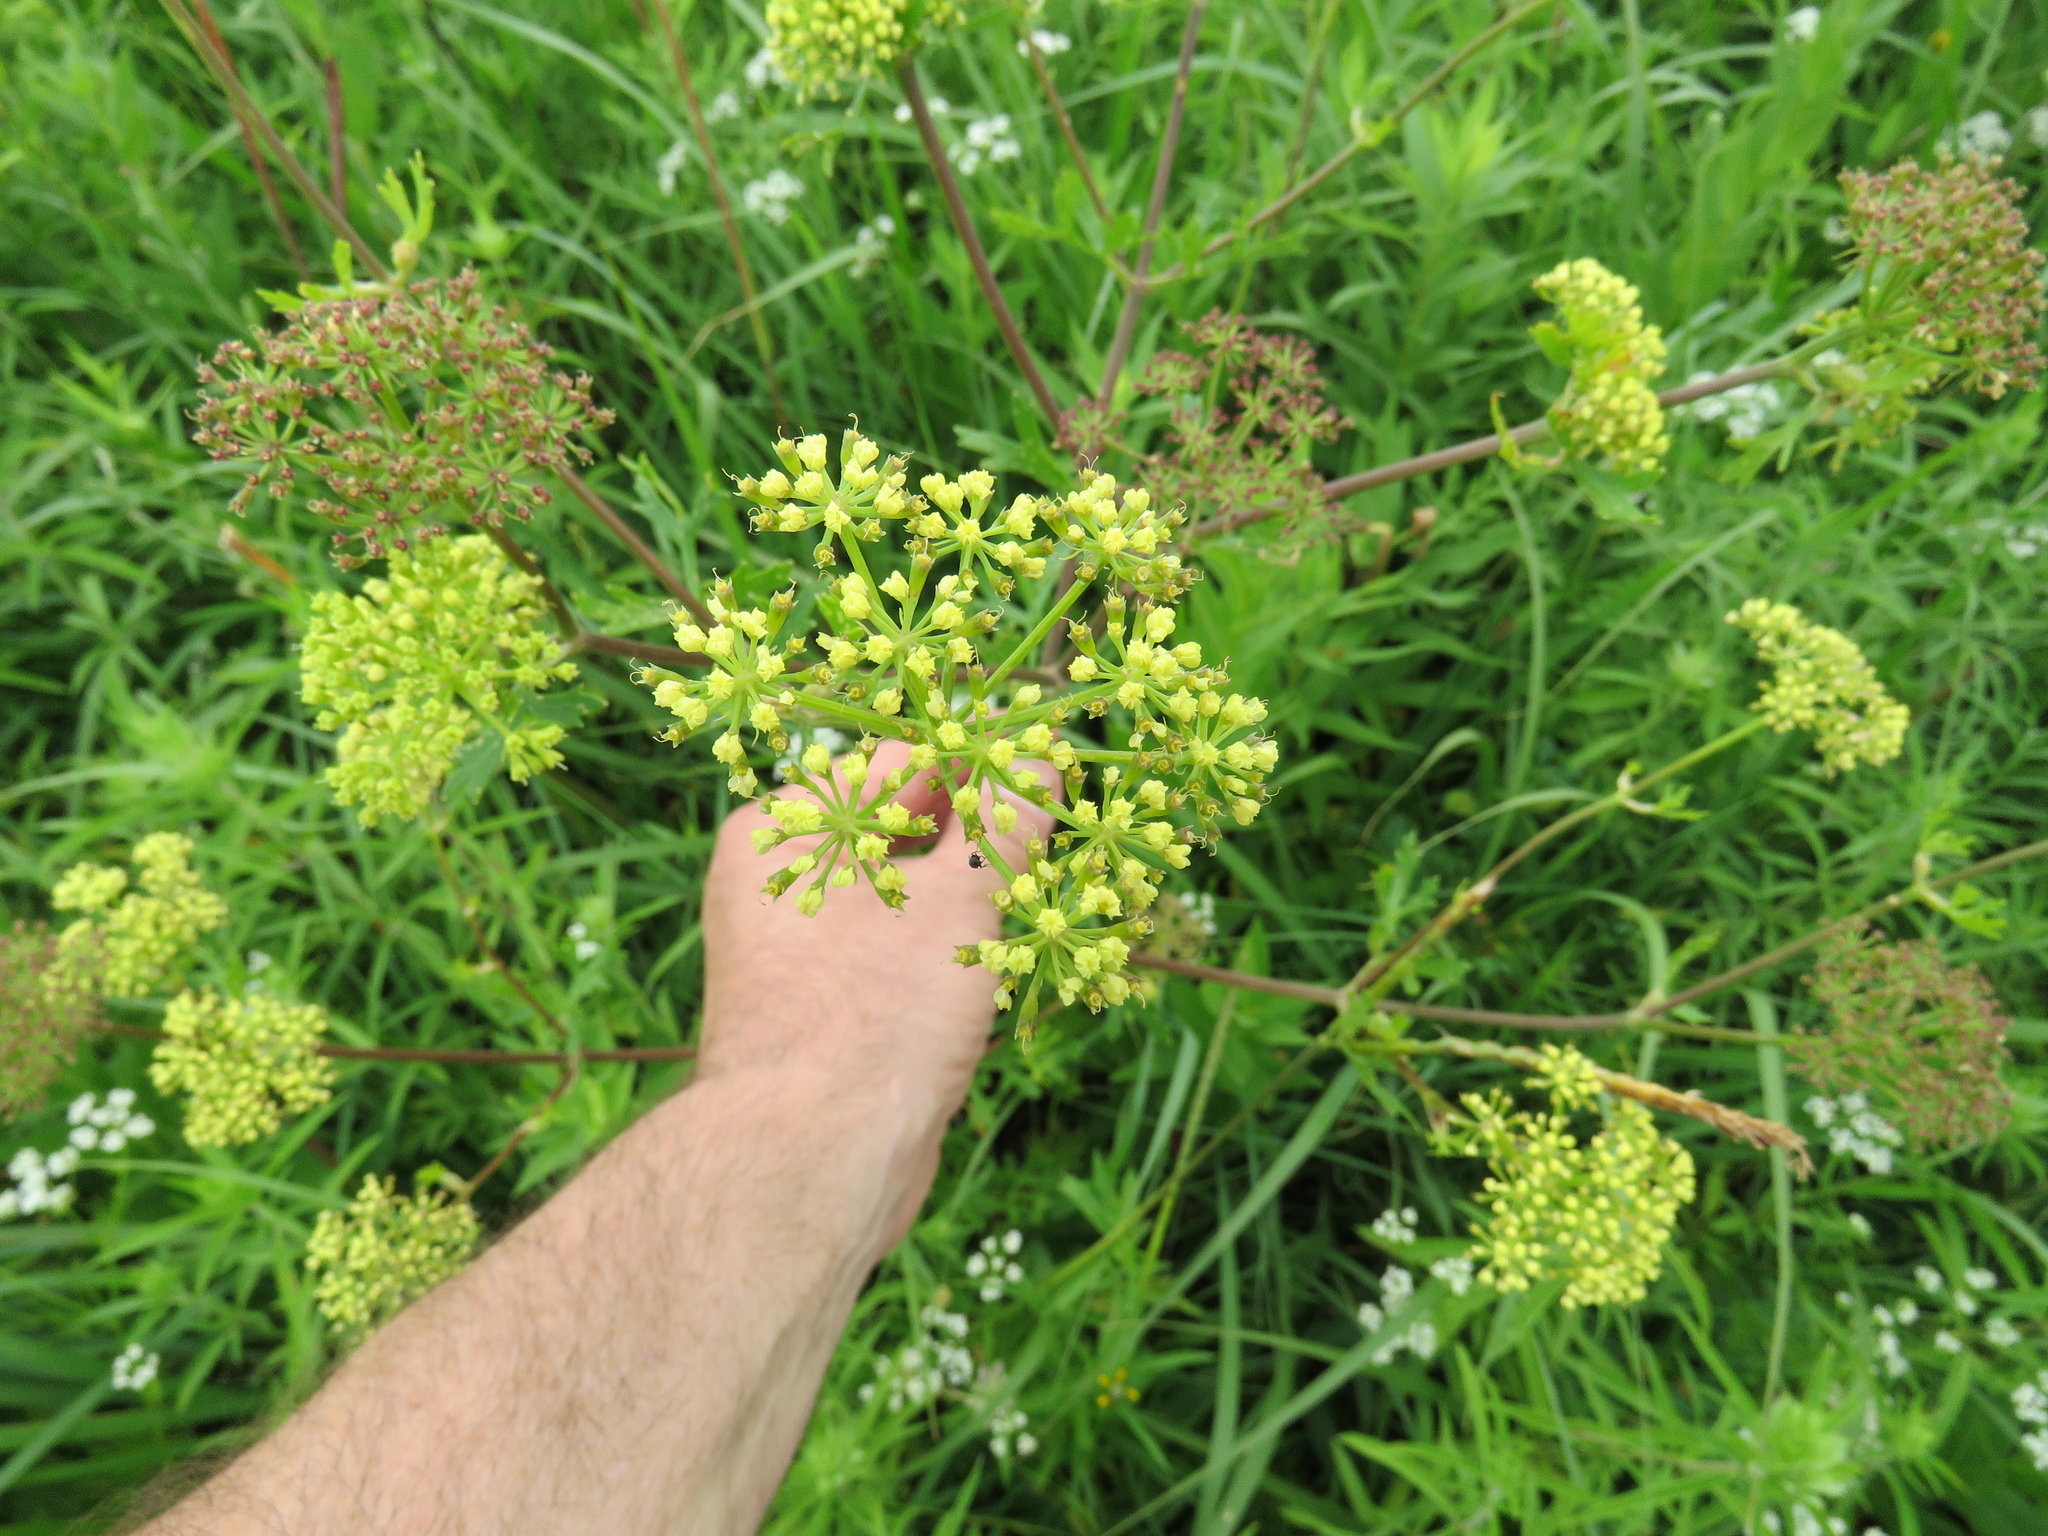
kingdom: Plantae
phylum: Tracheophyta
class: Magnoliopsida
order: Apiales
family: Apiaceae
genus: Polytaenia
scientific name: Polytaenia texana
